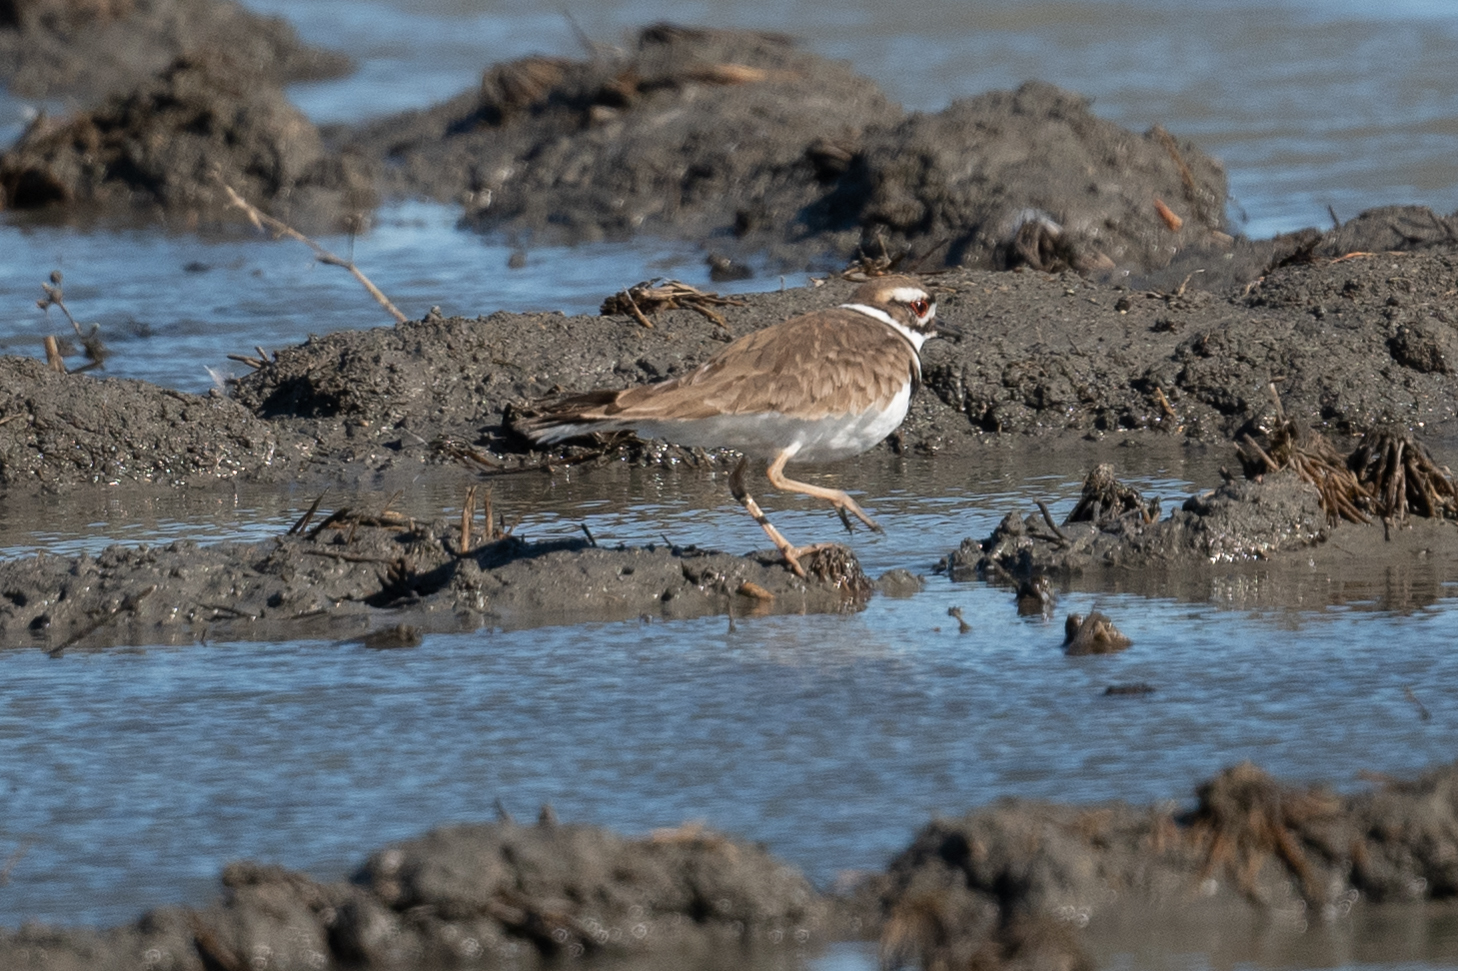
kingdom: Animalia
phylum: Chordata
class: Aves
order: Charadriiformes
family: Charadriidae
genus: Charadrius
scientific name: Charadrius vociferus
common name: Killdeer
